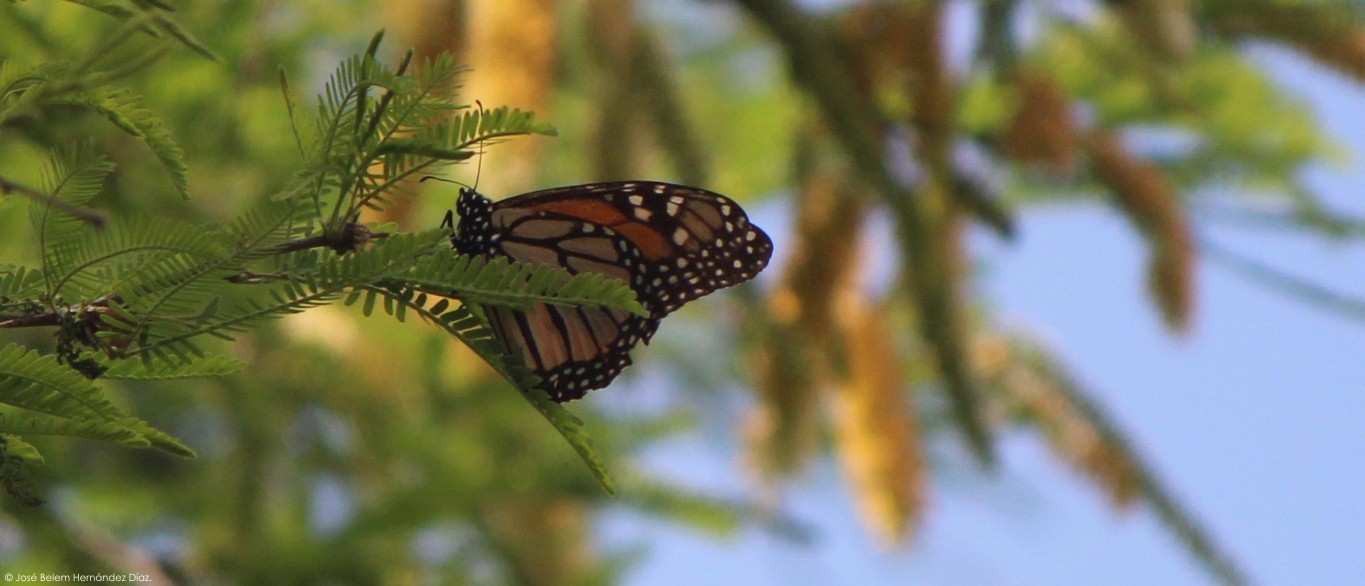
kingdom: Animalia
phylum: Arthropoda
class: Insecta
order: Lepidoptera
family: Nymphalidae
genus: Danaus
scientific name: Danaus plexippus
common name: Monarch
